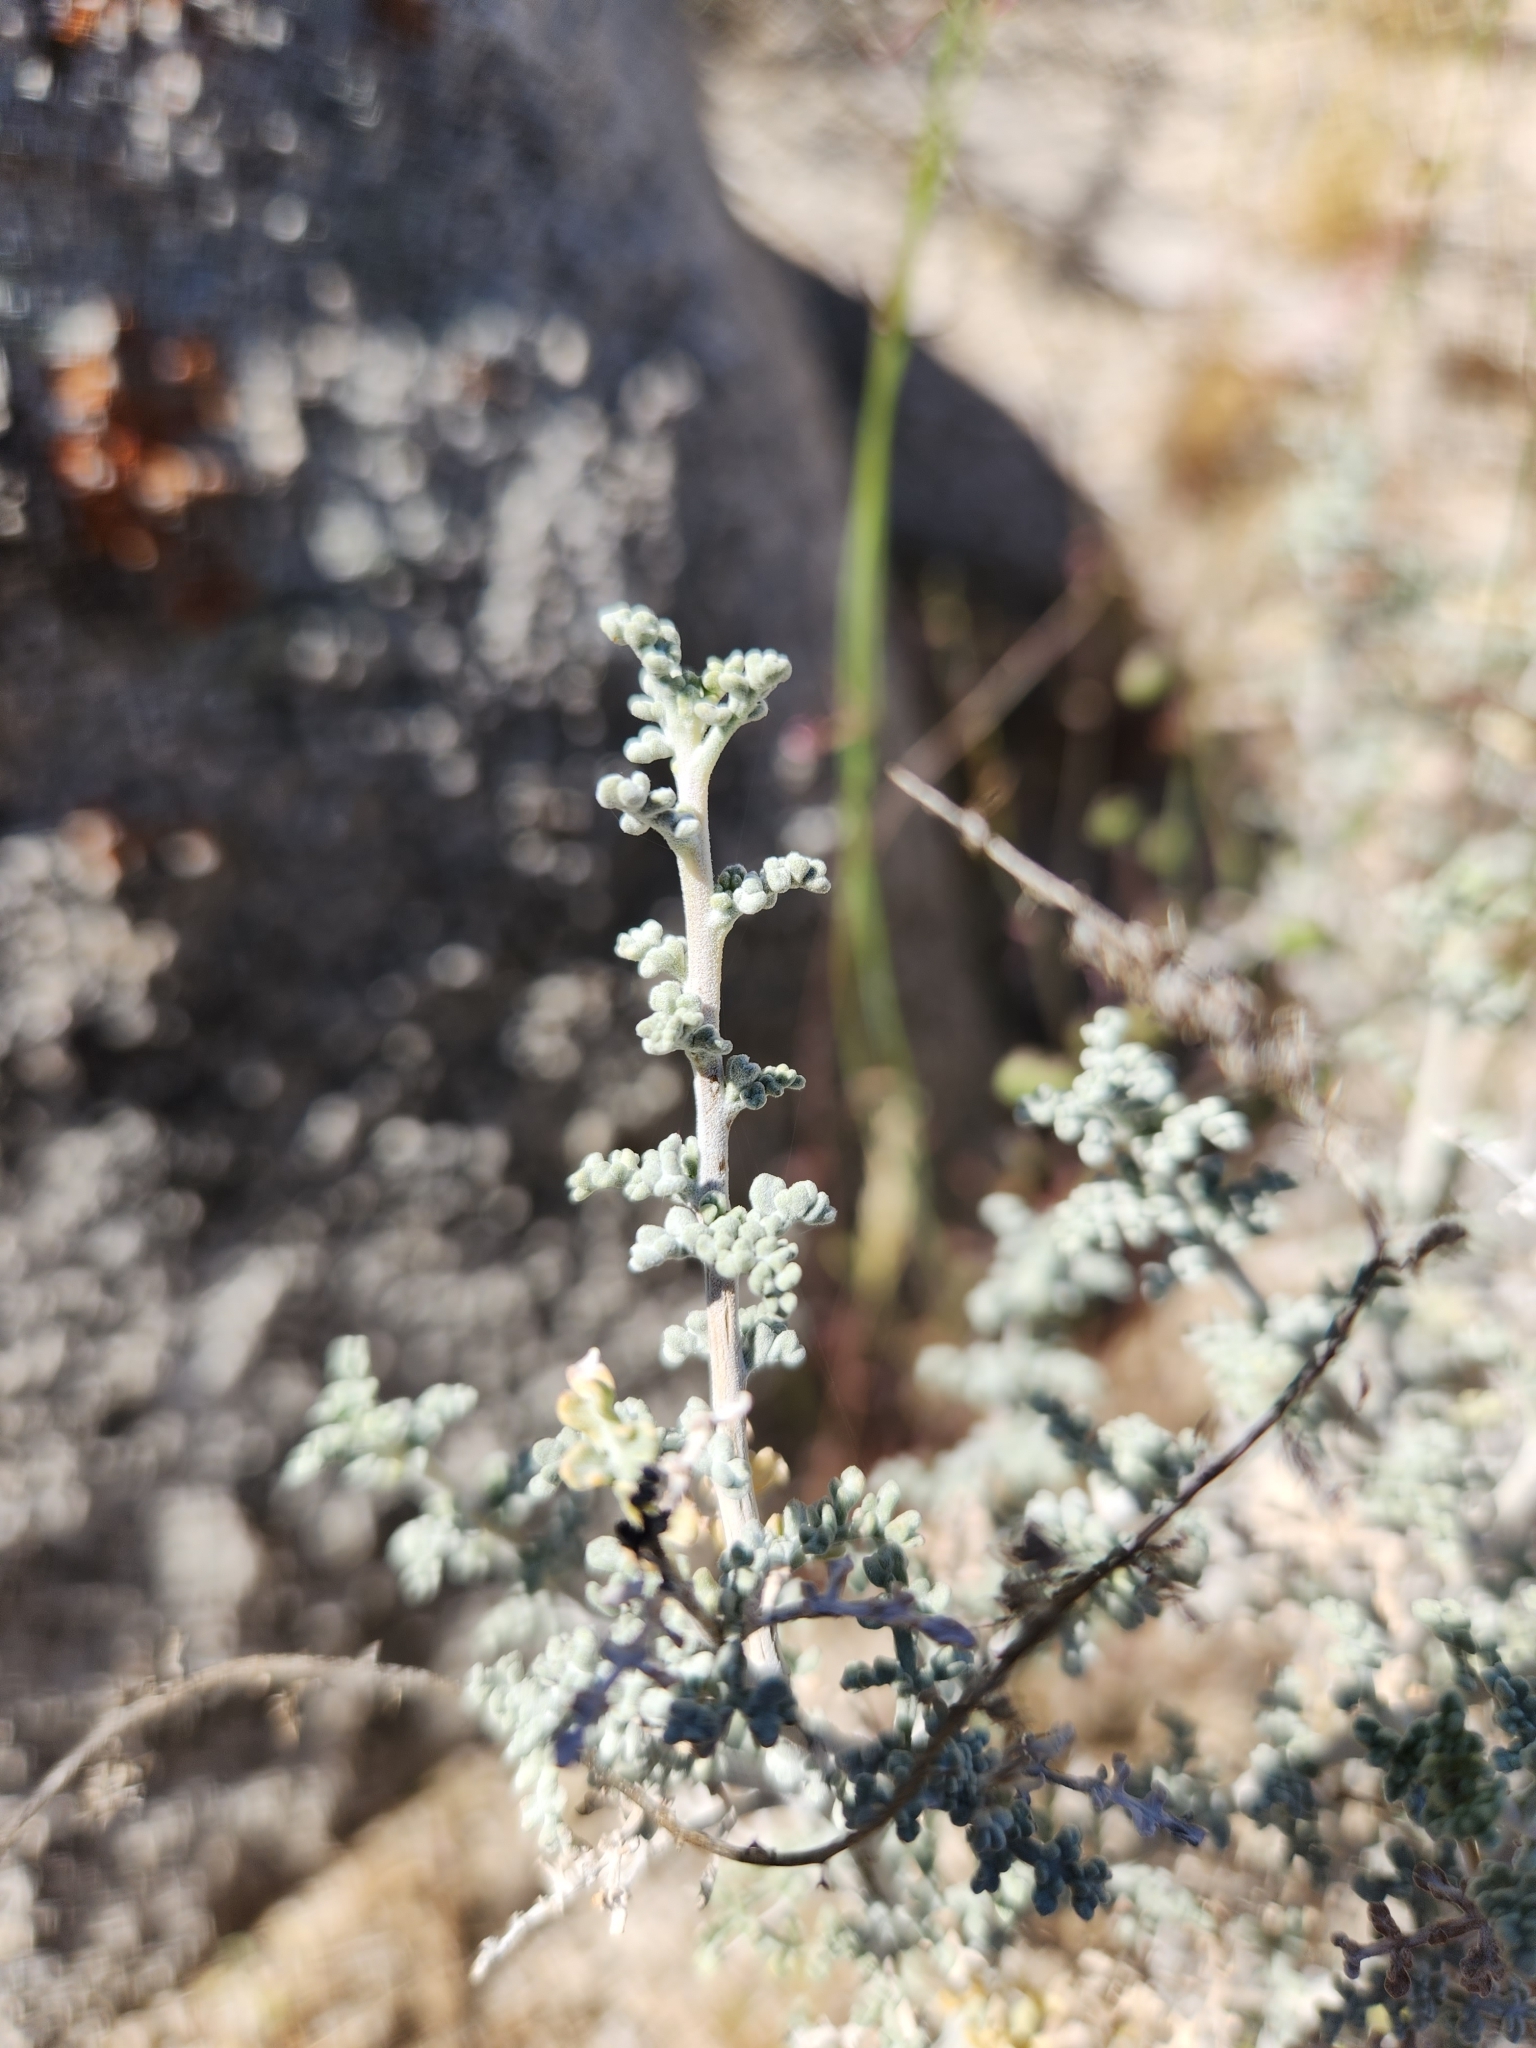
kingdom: Plantae
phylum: Tracheophyta
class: Magnoliopsida
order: Asterales
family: Asteraceae
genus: Ambrosia
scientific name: Ambrosia dumosa
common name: Bur-sage
